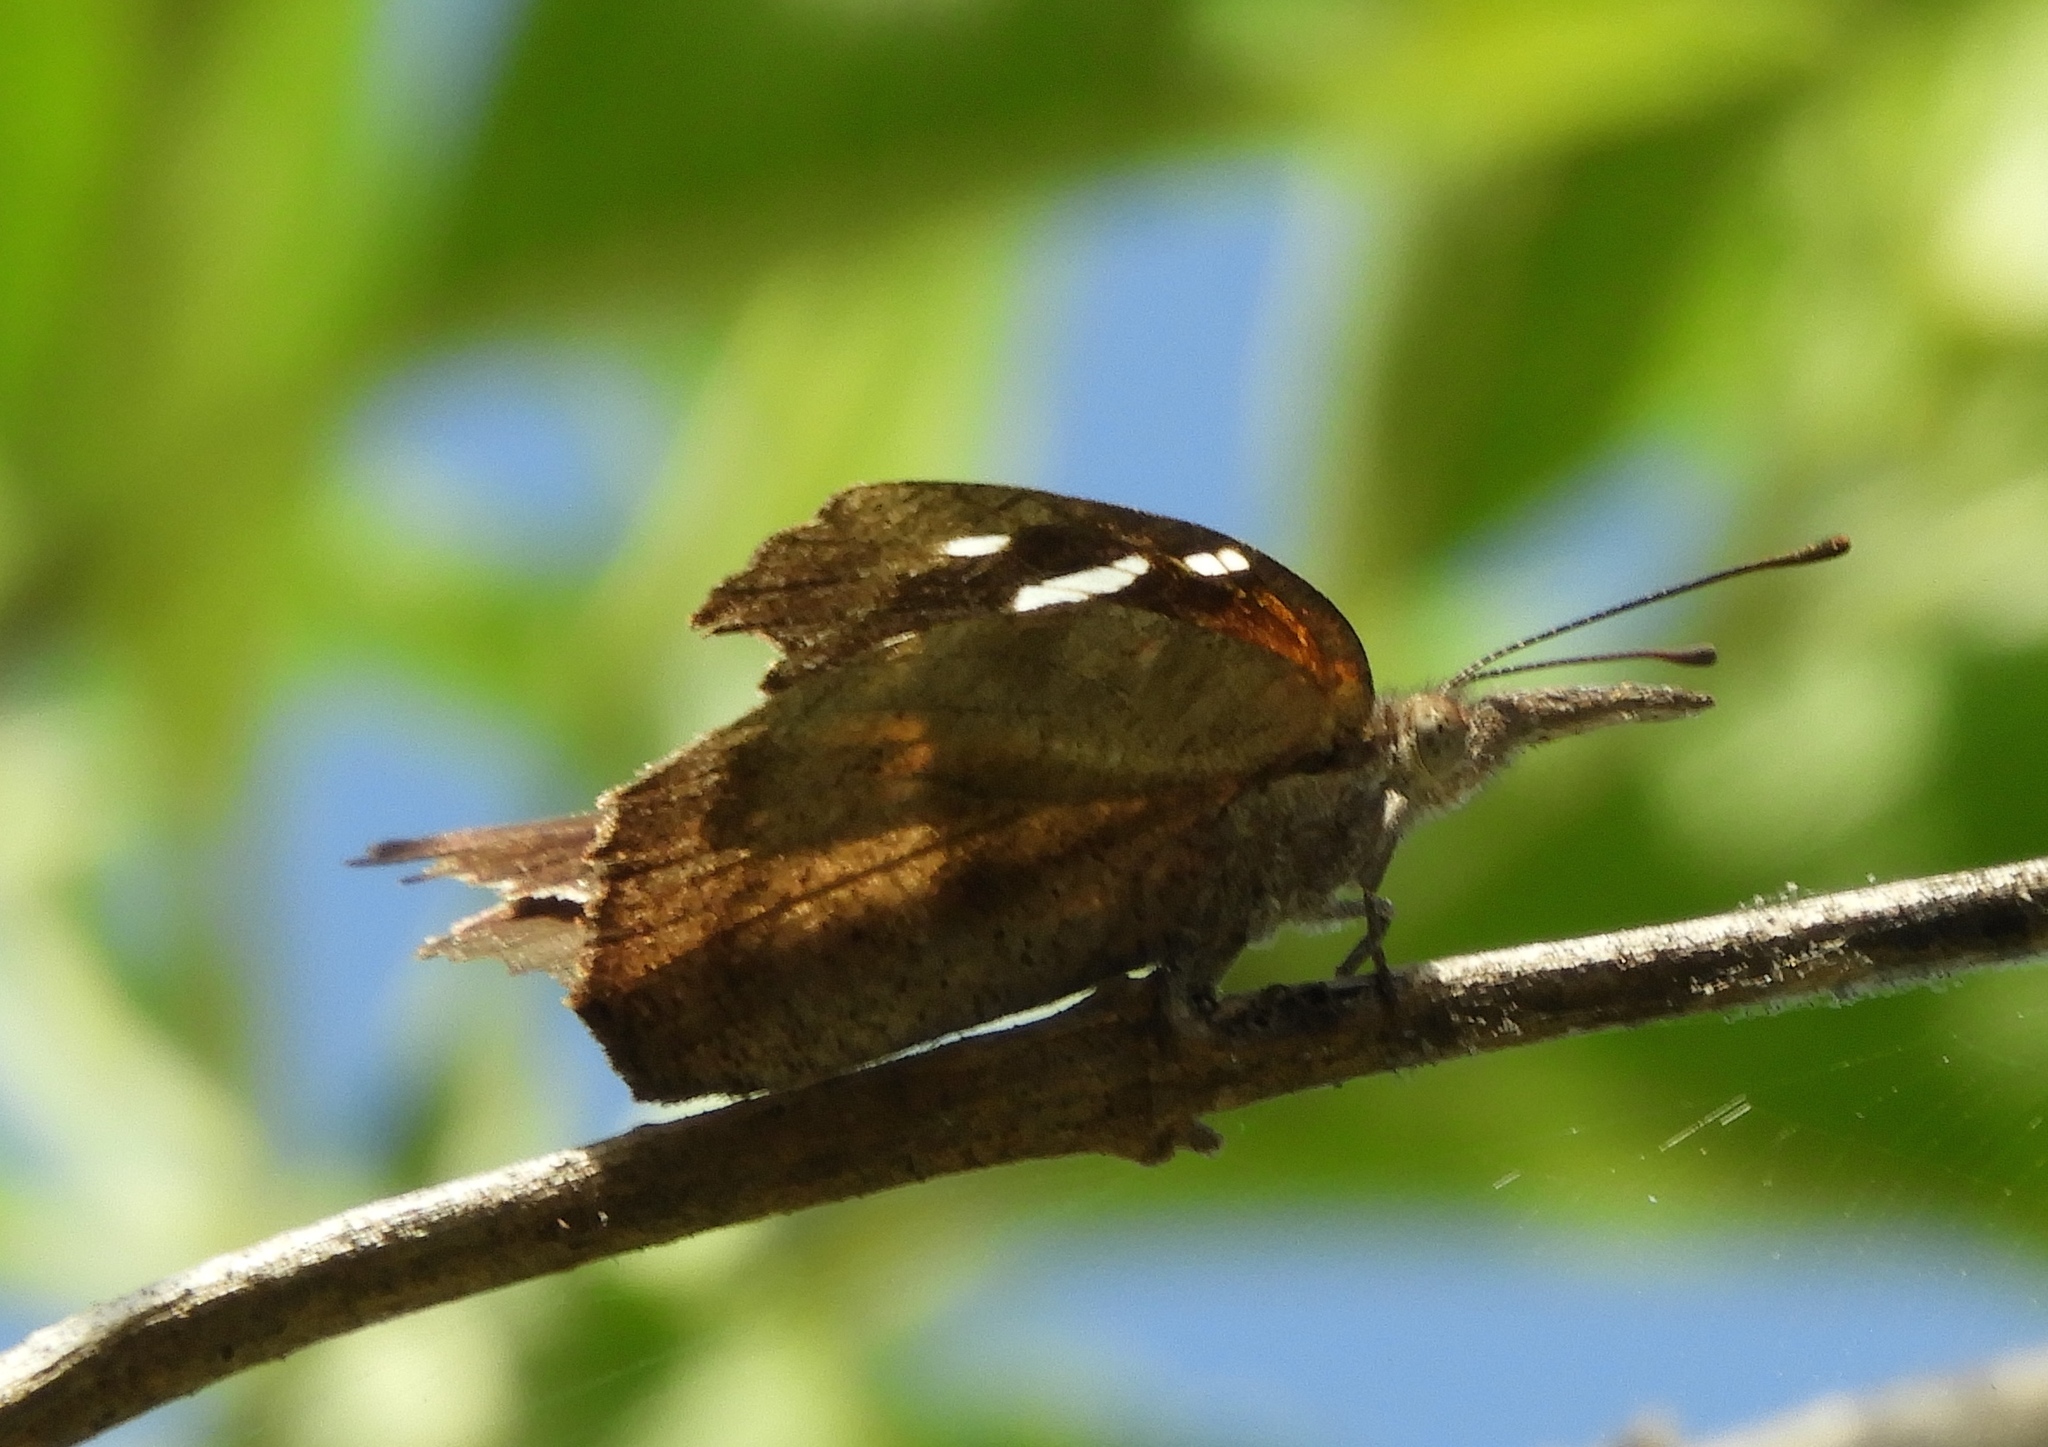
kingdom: Animalia
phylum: Arthropoda
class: Insecta
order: Lepidoptera
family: Nymphalidae
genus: Libytheana
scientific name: Libytheana carinenta
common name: American snout
